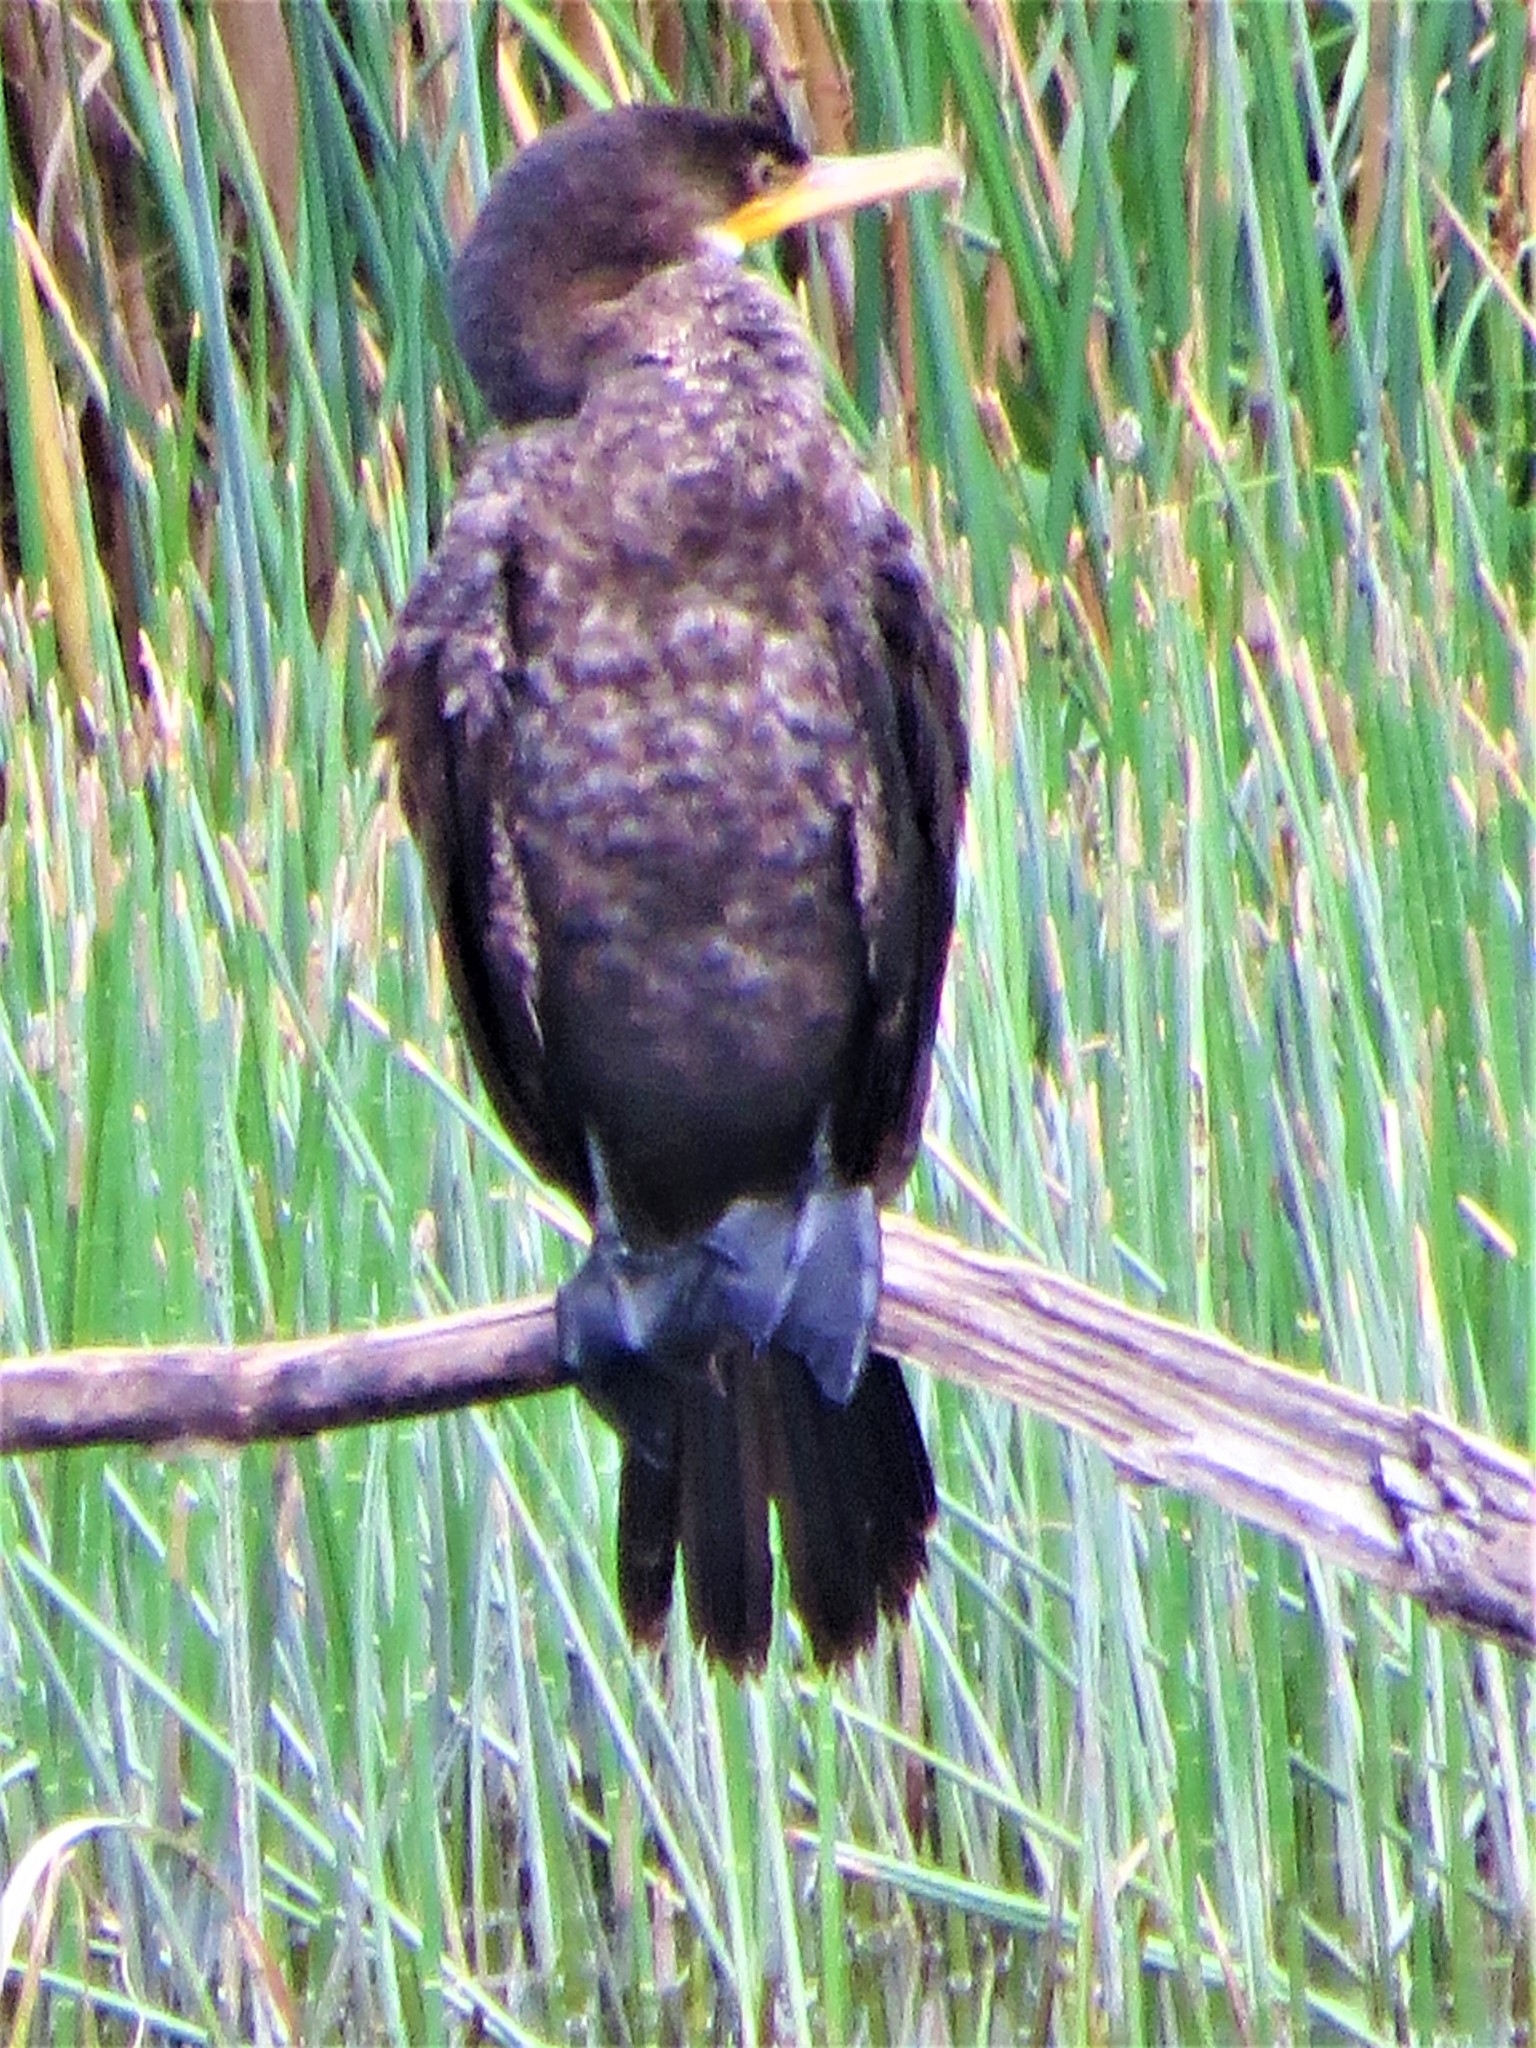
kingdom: Animalia
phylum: Chordata
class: Aves
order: Suliformes
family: Phalacrocoracidae
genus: Phalacrocorax
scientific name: Phalacrocorax brasilianus
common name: Neotropic cormorant
